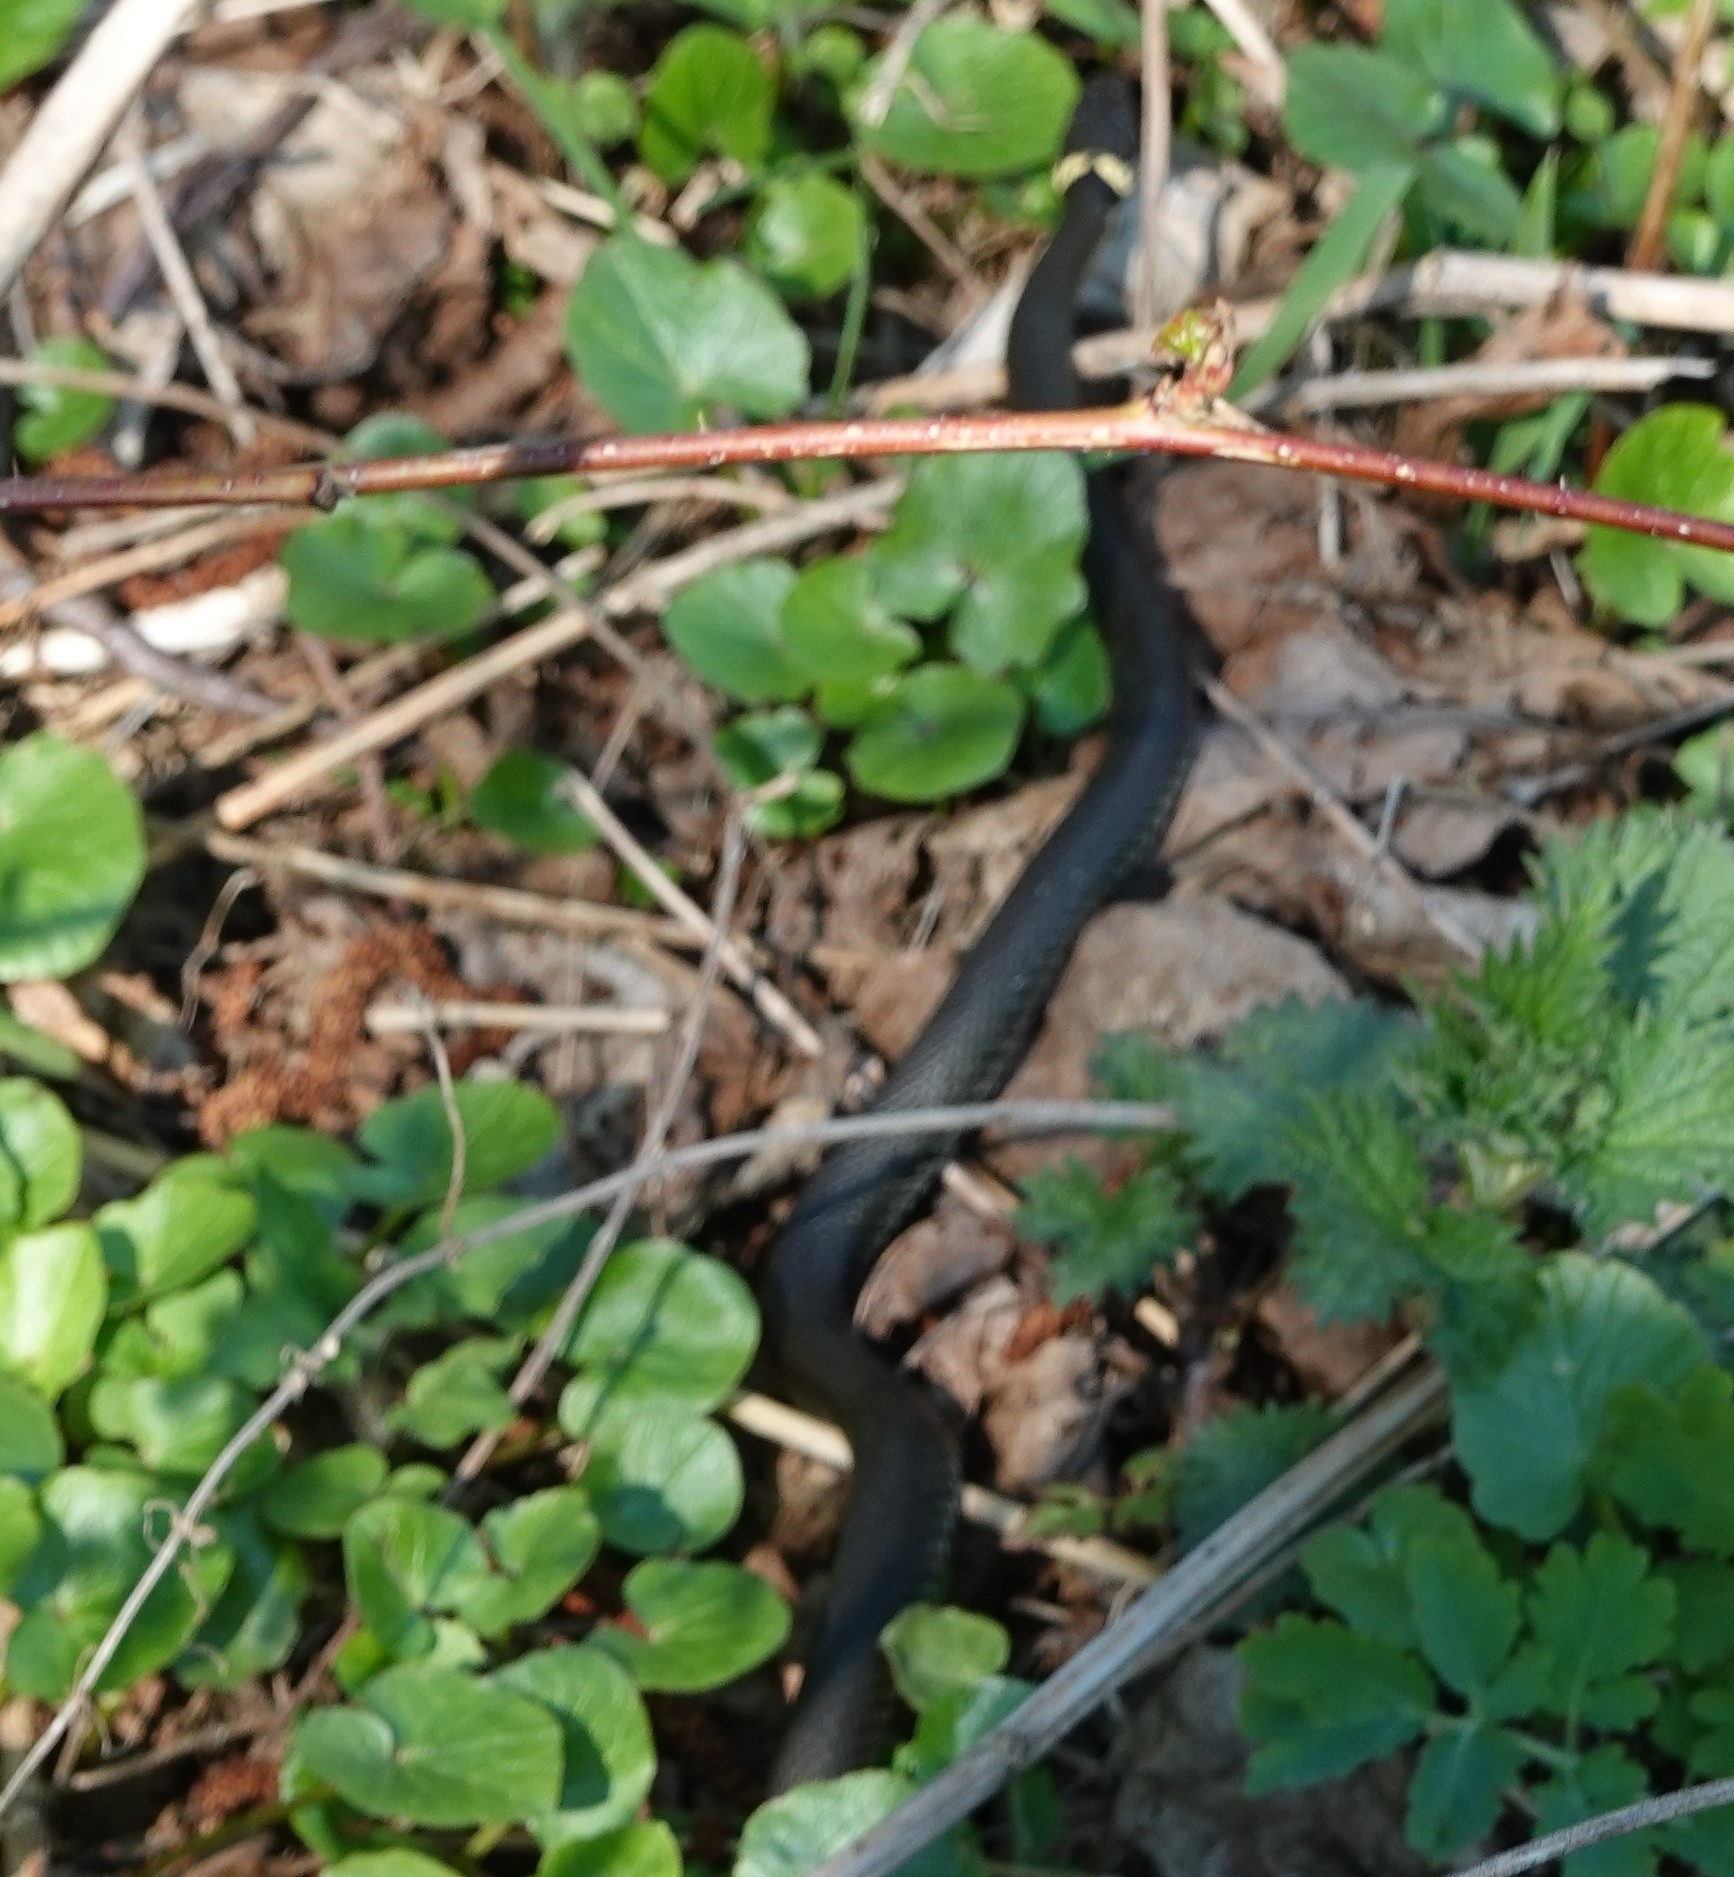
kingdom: Animalia
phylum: Chordata
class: Squamata
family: Colubridae
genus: Natrix
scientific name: Natrix natrix
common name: Grass snake
